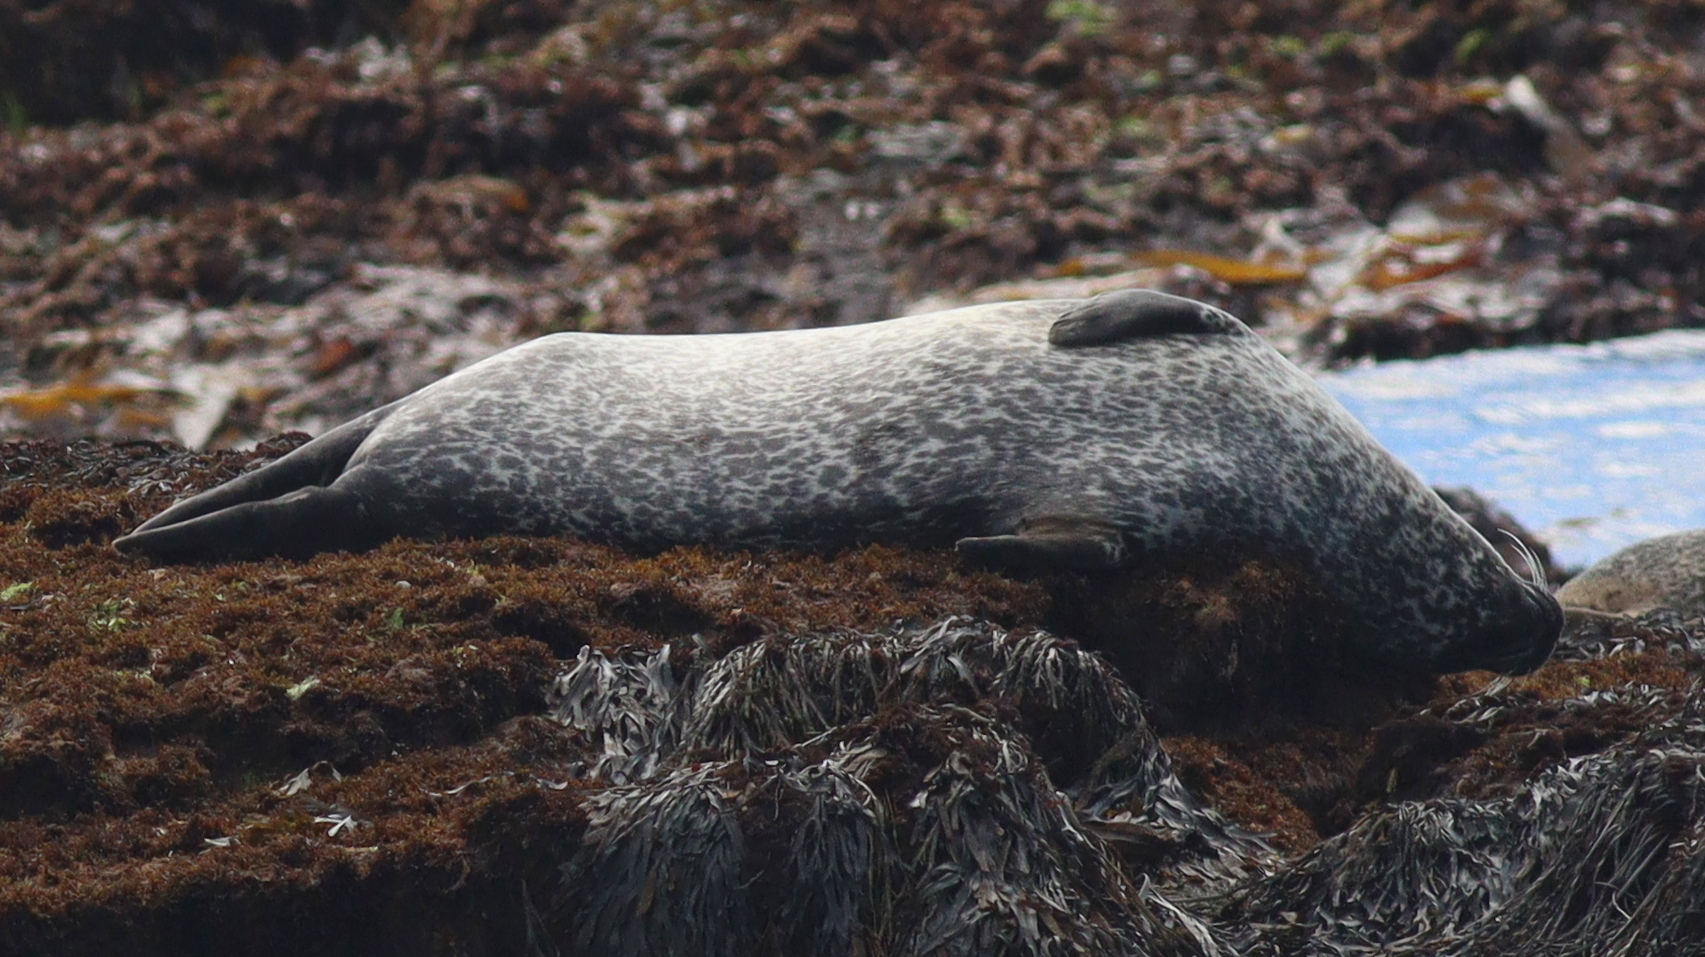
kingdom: Animalia
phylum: Chordata
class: Mammalia
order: Carnivora
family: Phocidae
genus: Phoca
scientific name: Phoca vitulina
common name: Harbor seal
